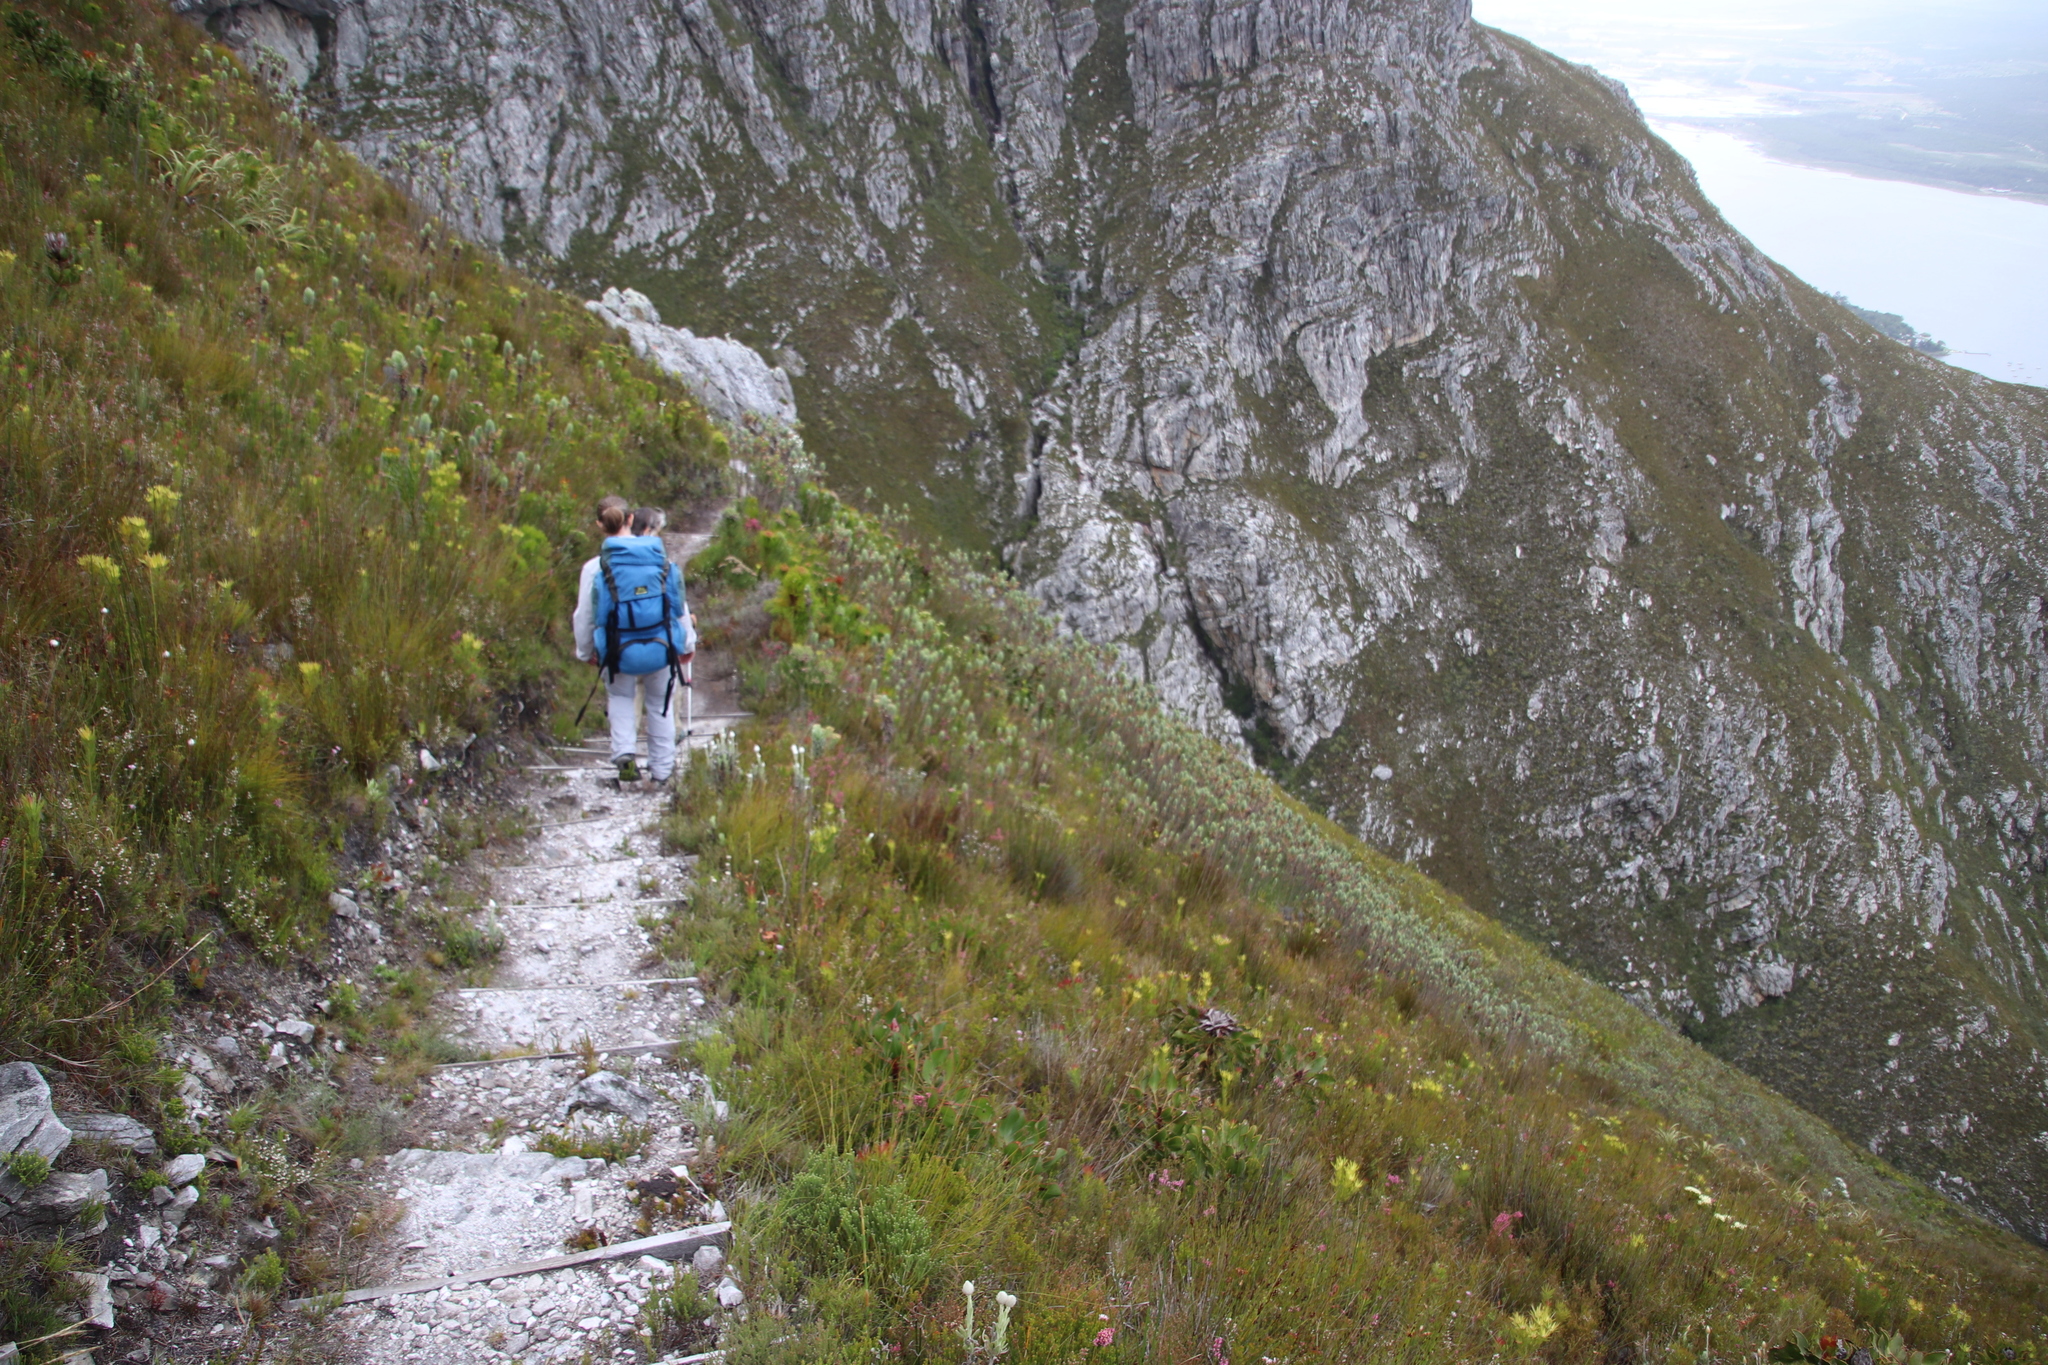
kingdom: Plantae
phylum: Tracheophyta
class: Magnoliopsida
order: Proteales
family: Proteaceae
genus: Protea
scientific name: Protea cynaroides
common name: King protea
